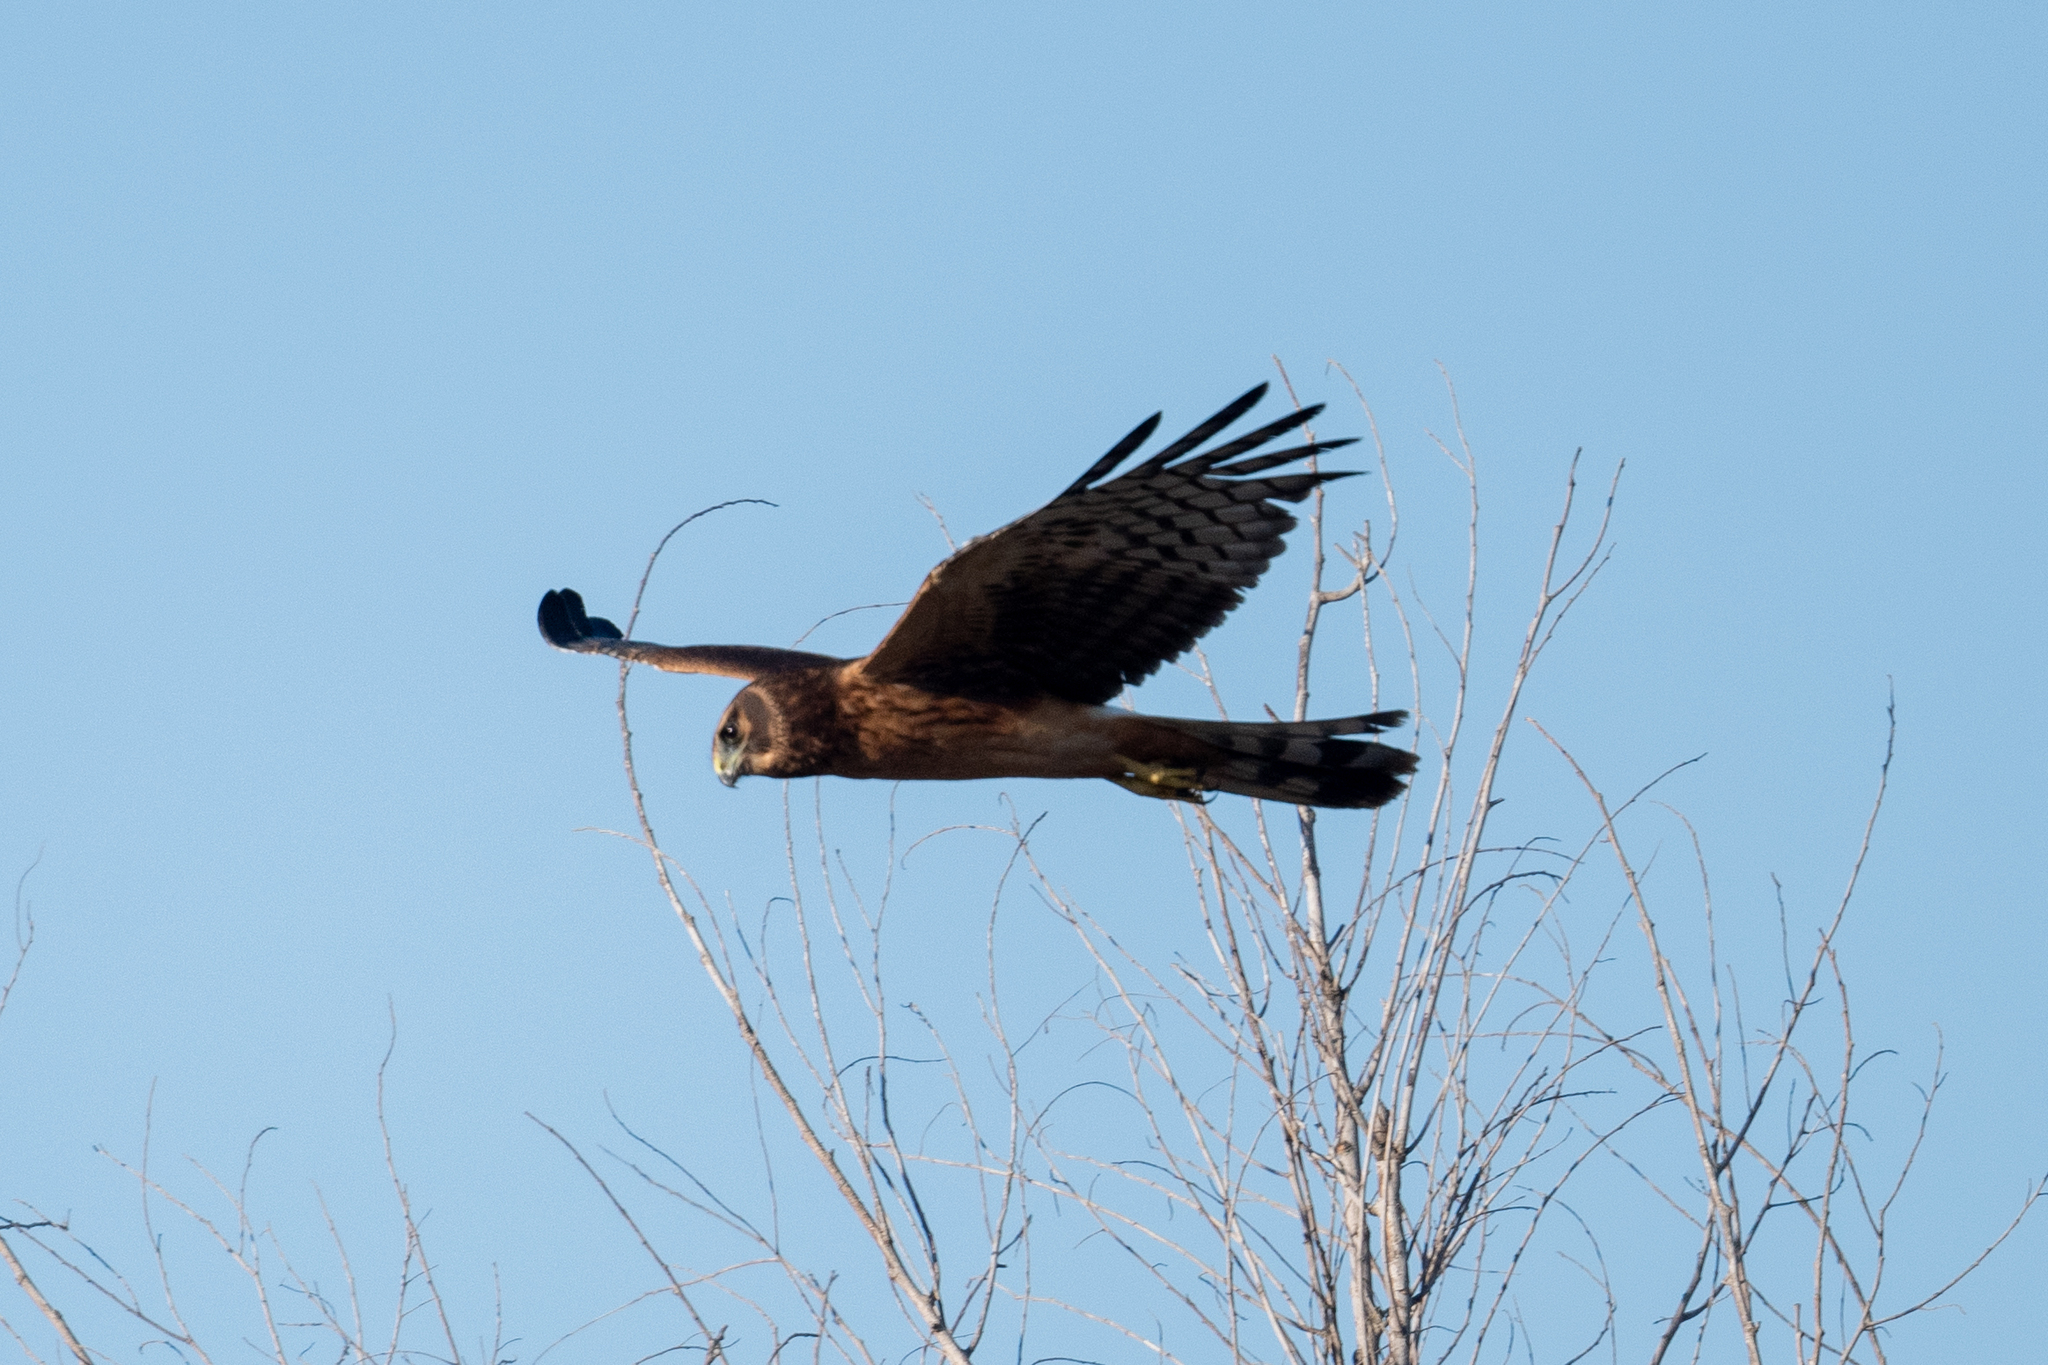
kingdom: Animalia
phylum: Chordata
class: Aves
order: Accipitriformes
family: Accipitridae
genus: Circus
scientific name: Circus cyaneus
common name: Hen harrier
